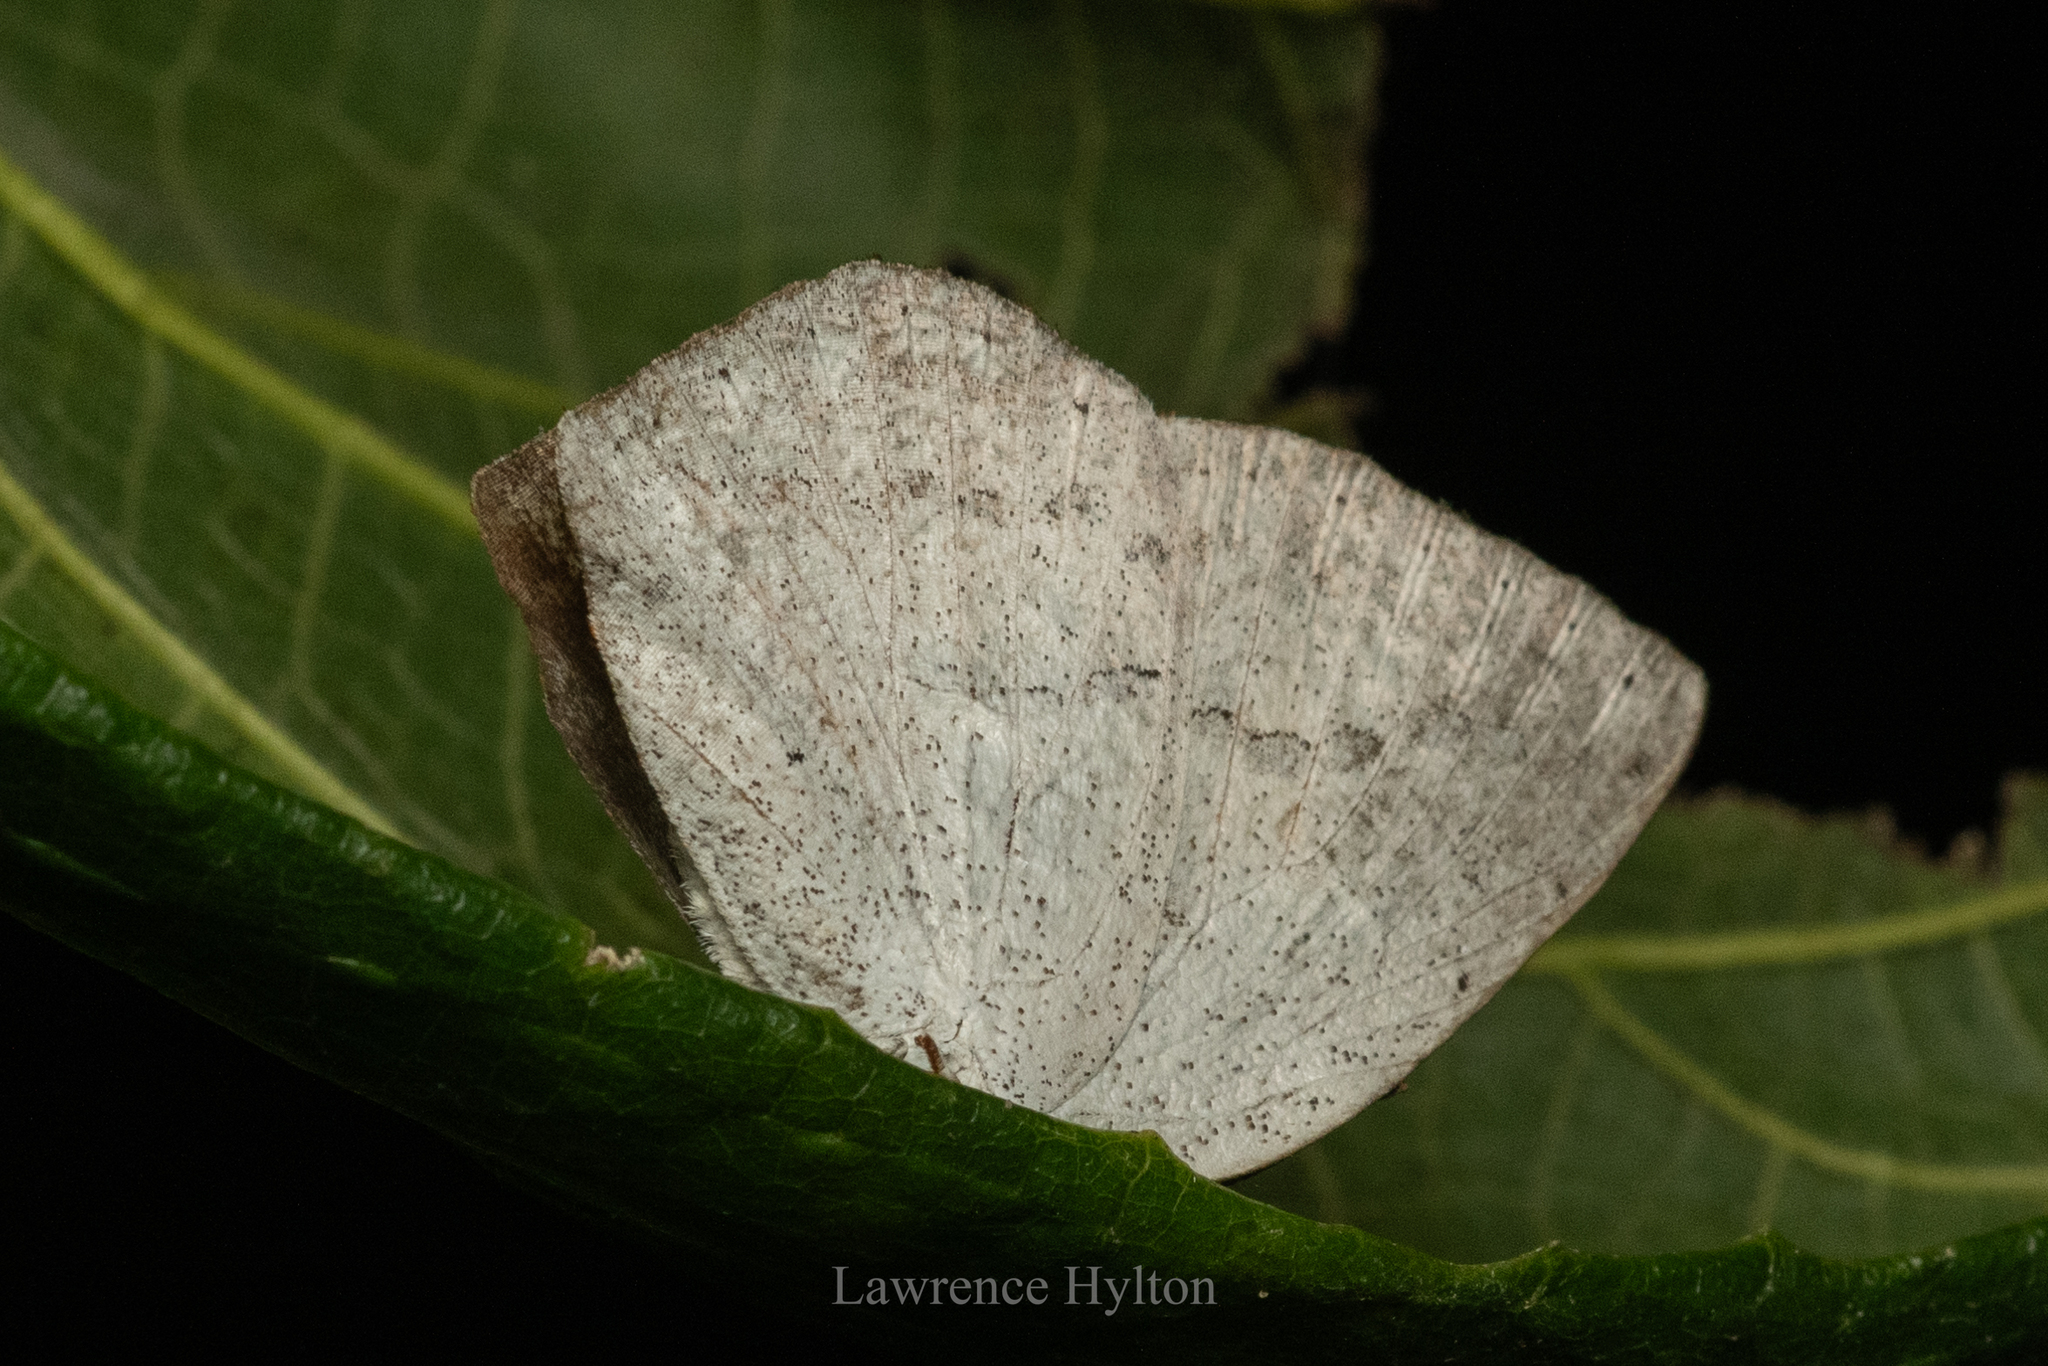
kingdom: Animalia
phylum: Arthropoda
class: Insecta
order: Lepidoptera
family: Lycaenidae
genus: Curetis
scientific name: Curetis acuta
